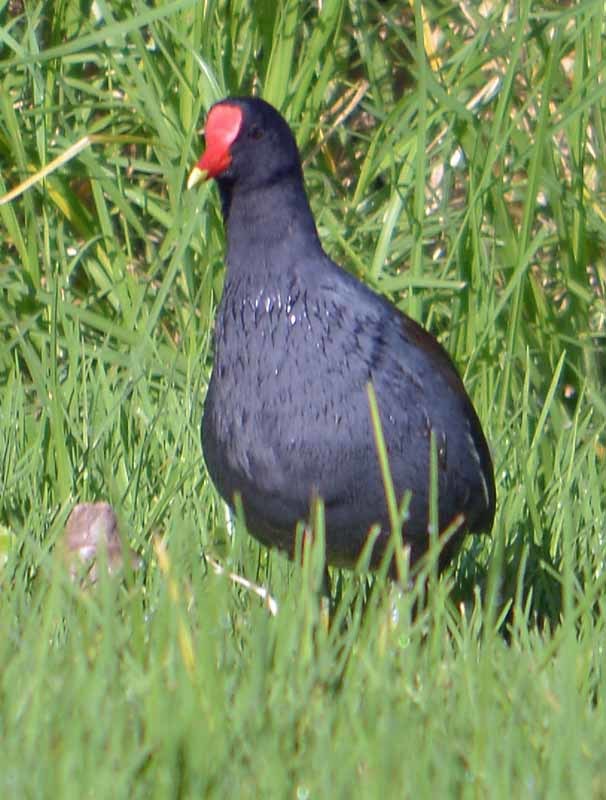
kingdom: Animalia
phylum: Chordata
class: Aves
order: Gruiformes
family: Rallidae
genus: Gallinula
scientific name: Gallinula chloropus
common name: Common moorhen
